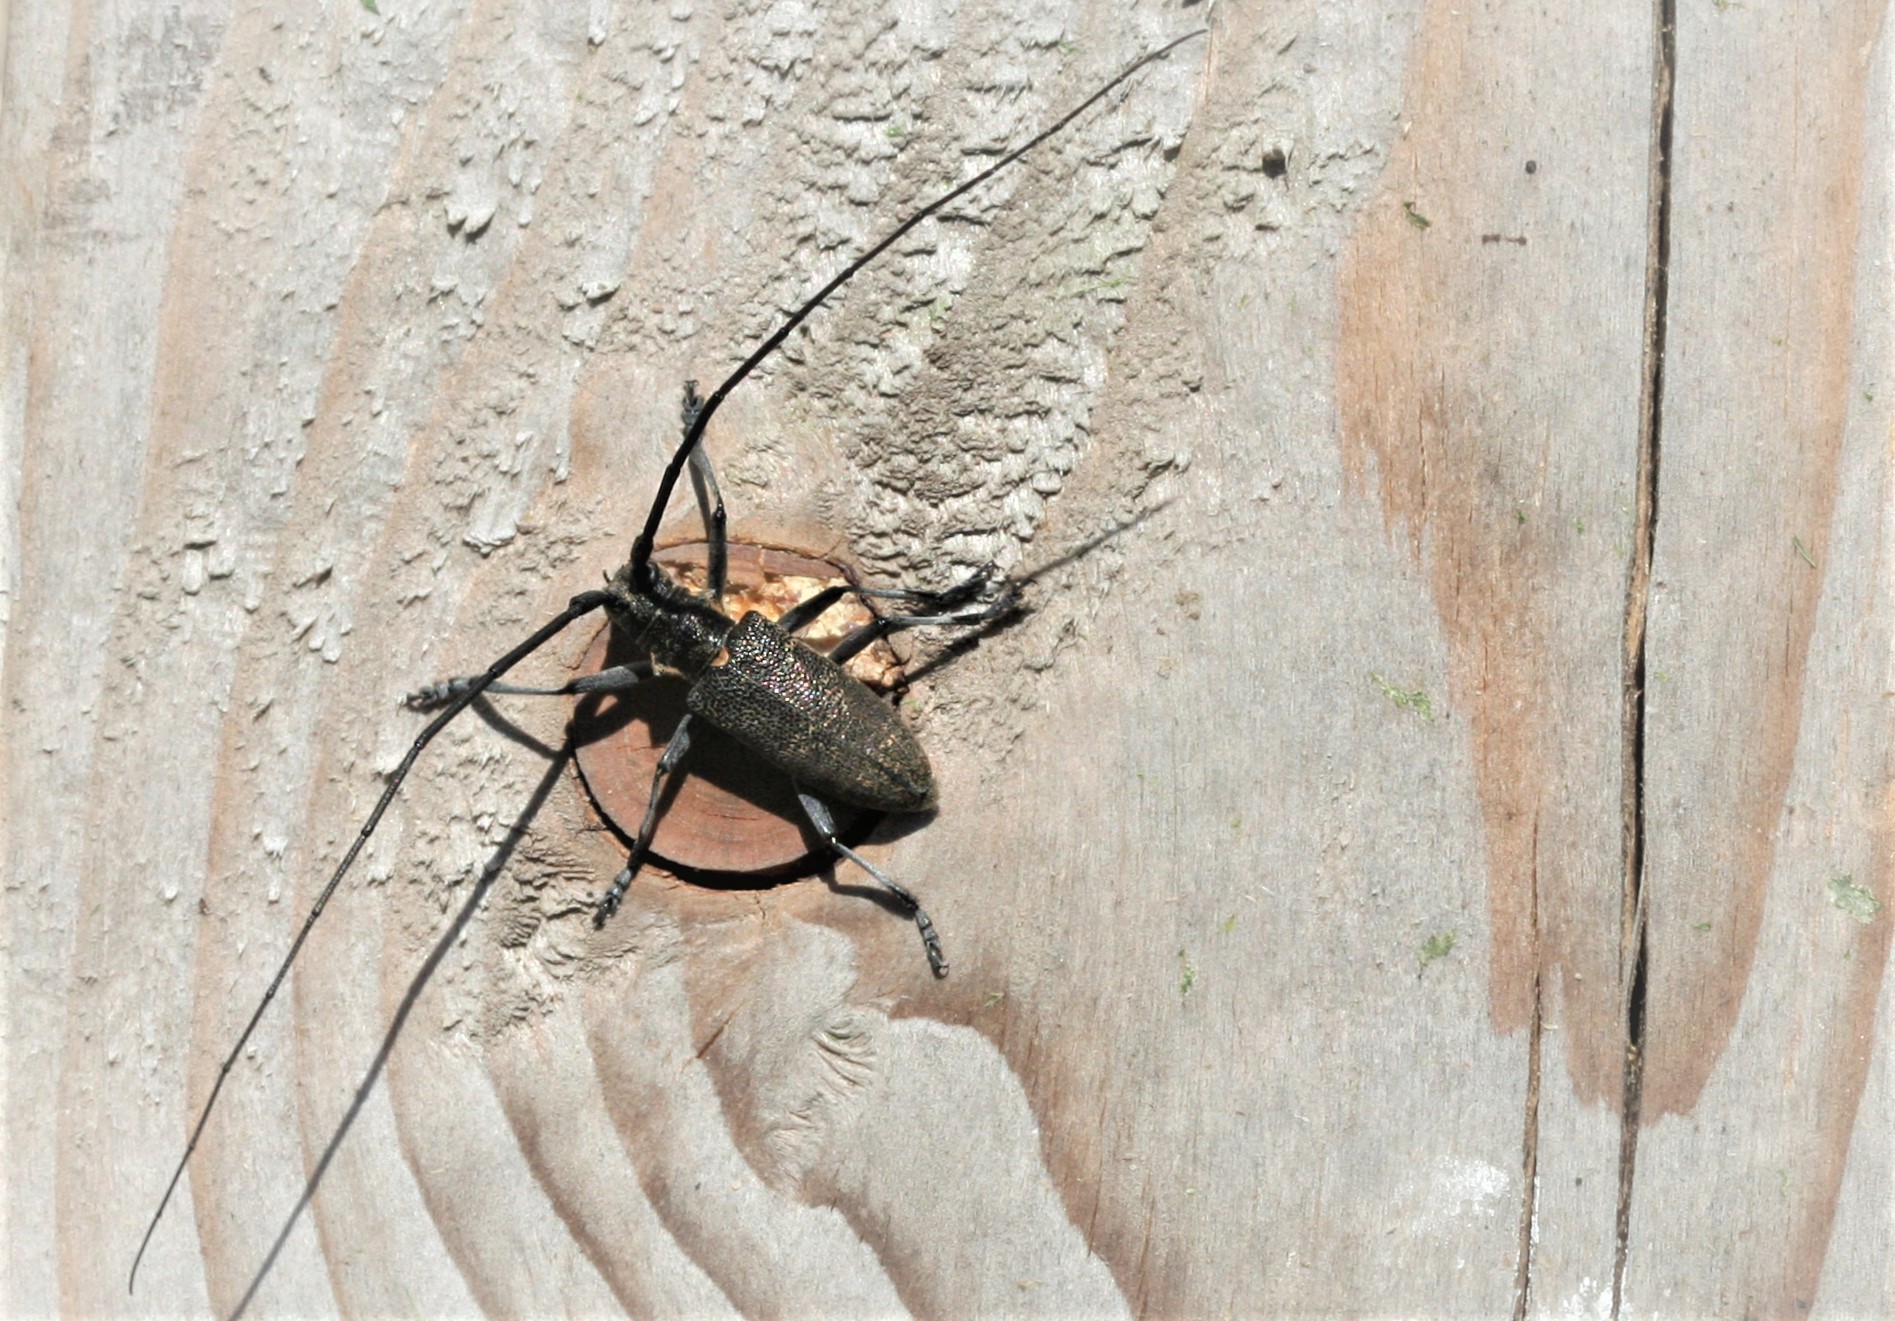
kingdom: Animalia
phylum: Arthropoda
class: Insecta
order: Coleoptera
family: Cerambycidae
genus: Monochamus
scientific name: Monochamus galloprovincialis
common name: Pine sawyer
